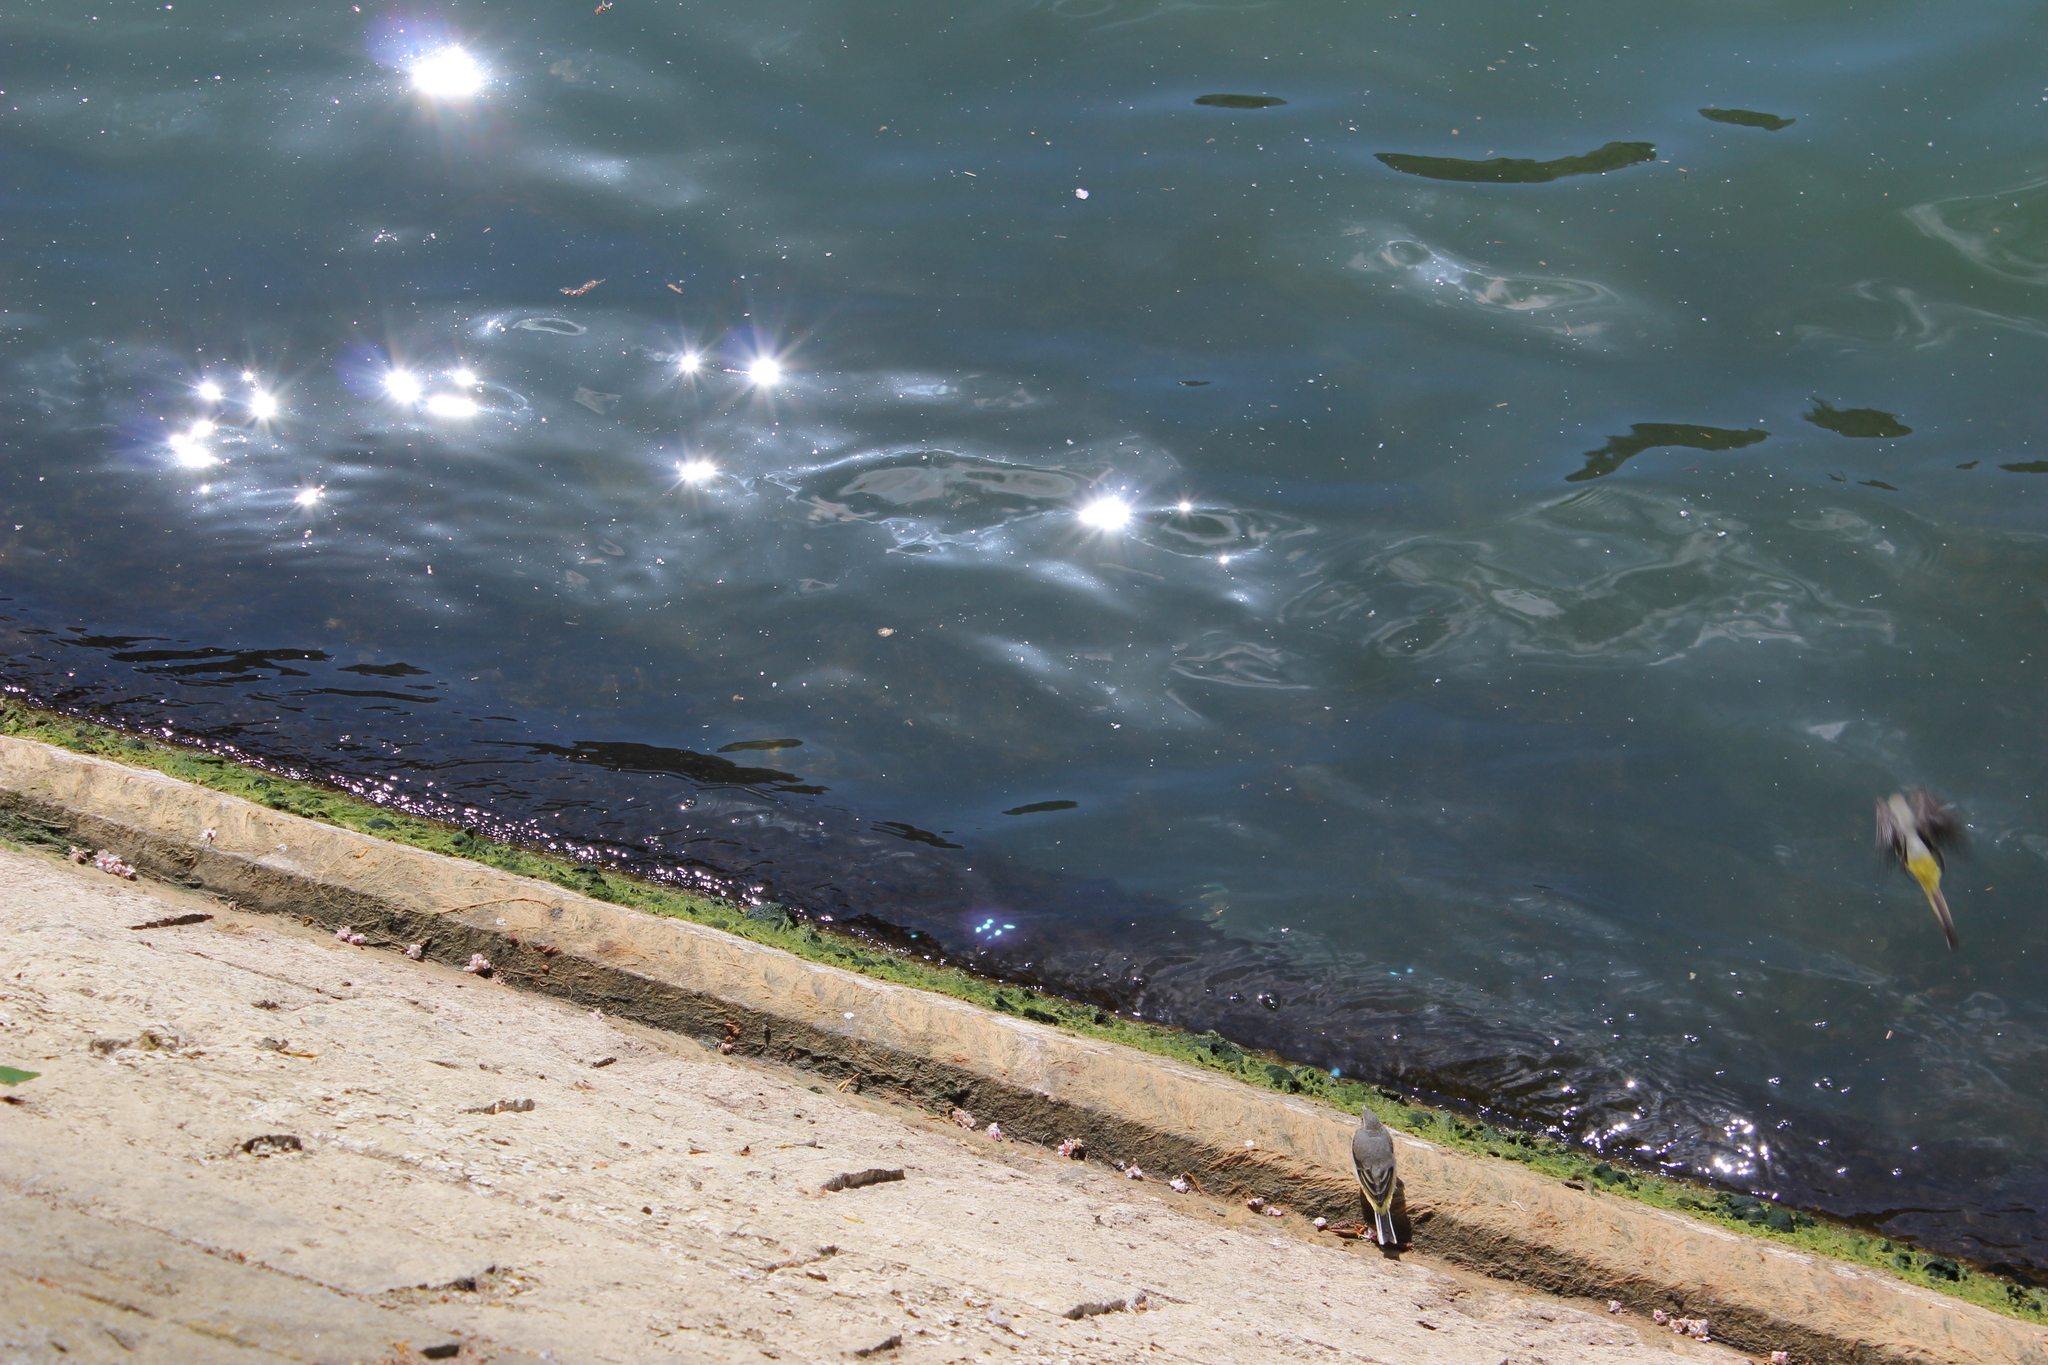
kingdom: Animalia
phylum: Chordata
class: Aves
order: Passeriformes
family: Motacillidae
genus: Motacilla
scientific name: Motacilla cinerea
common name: Grey wagtail
